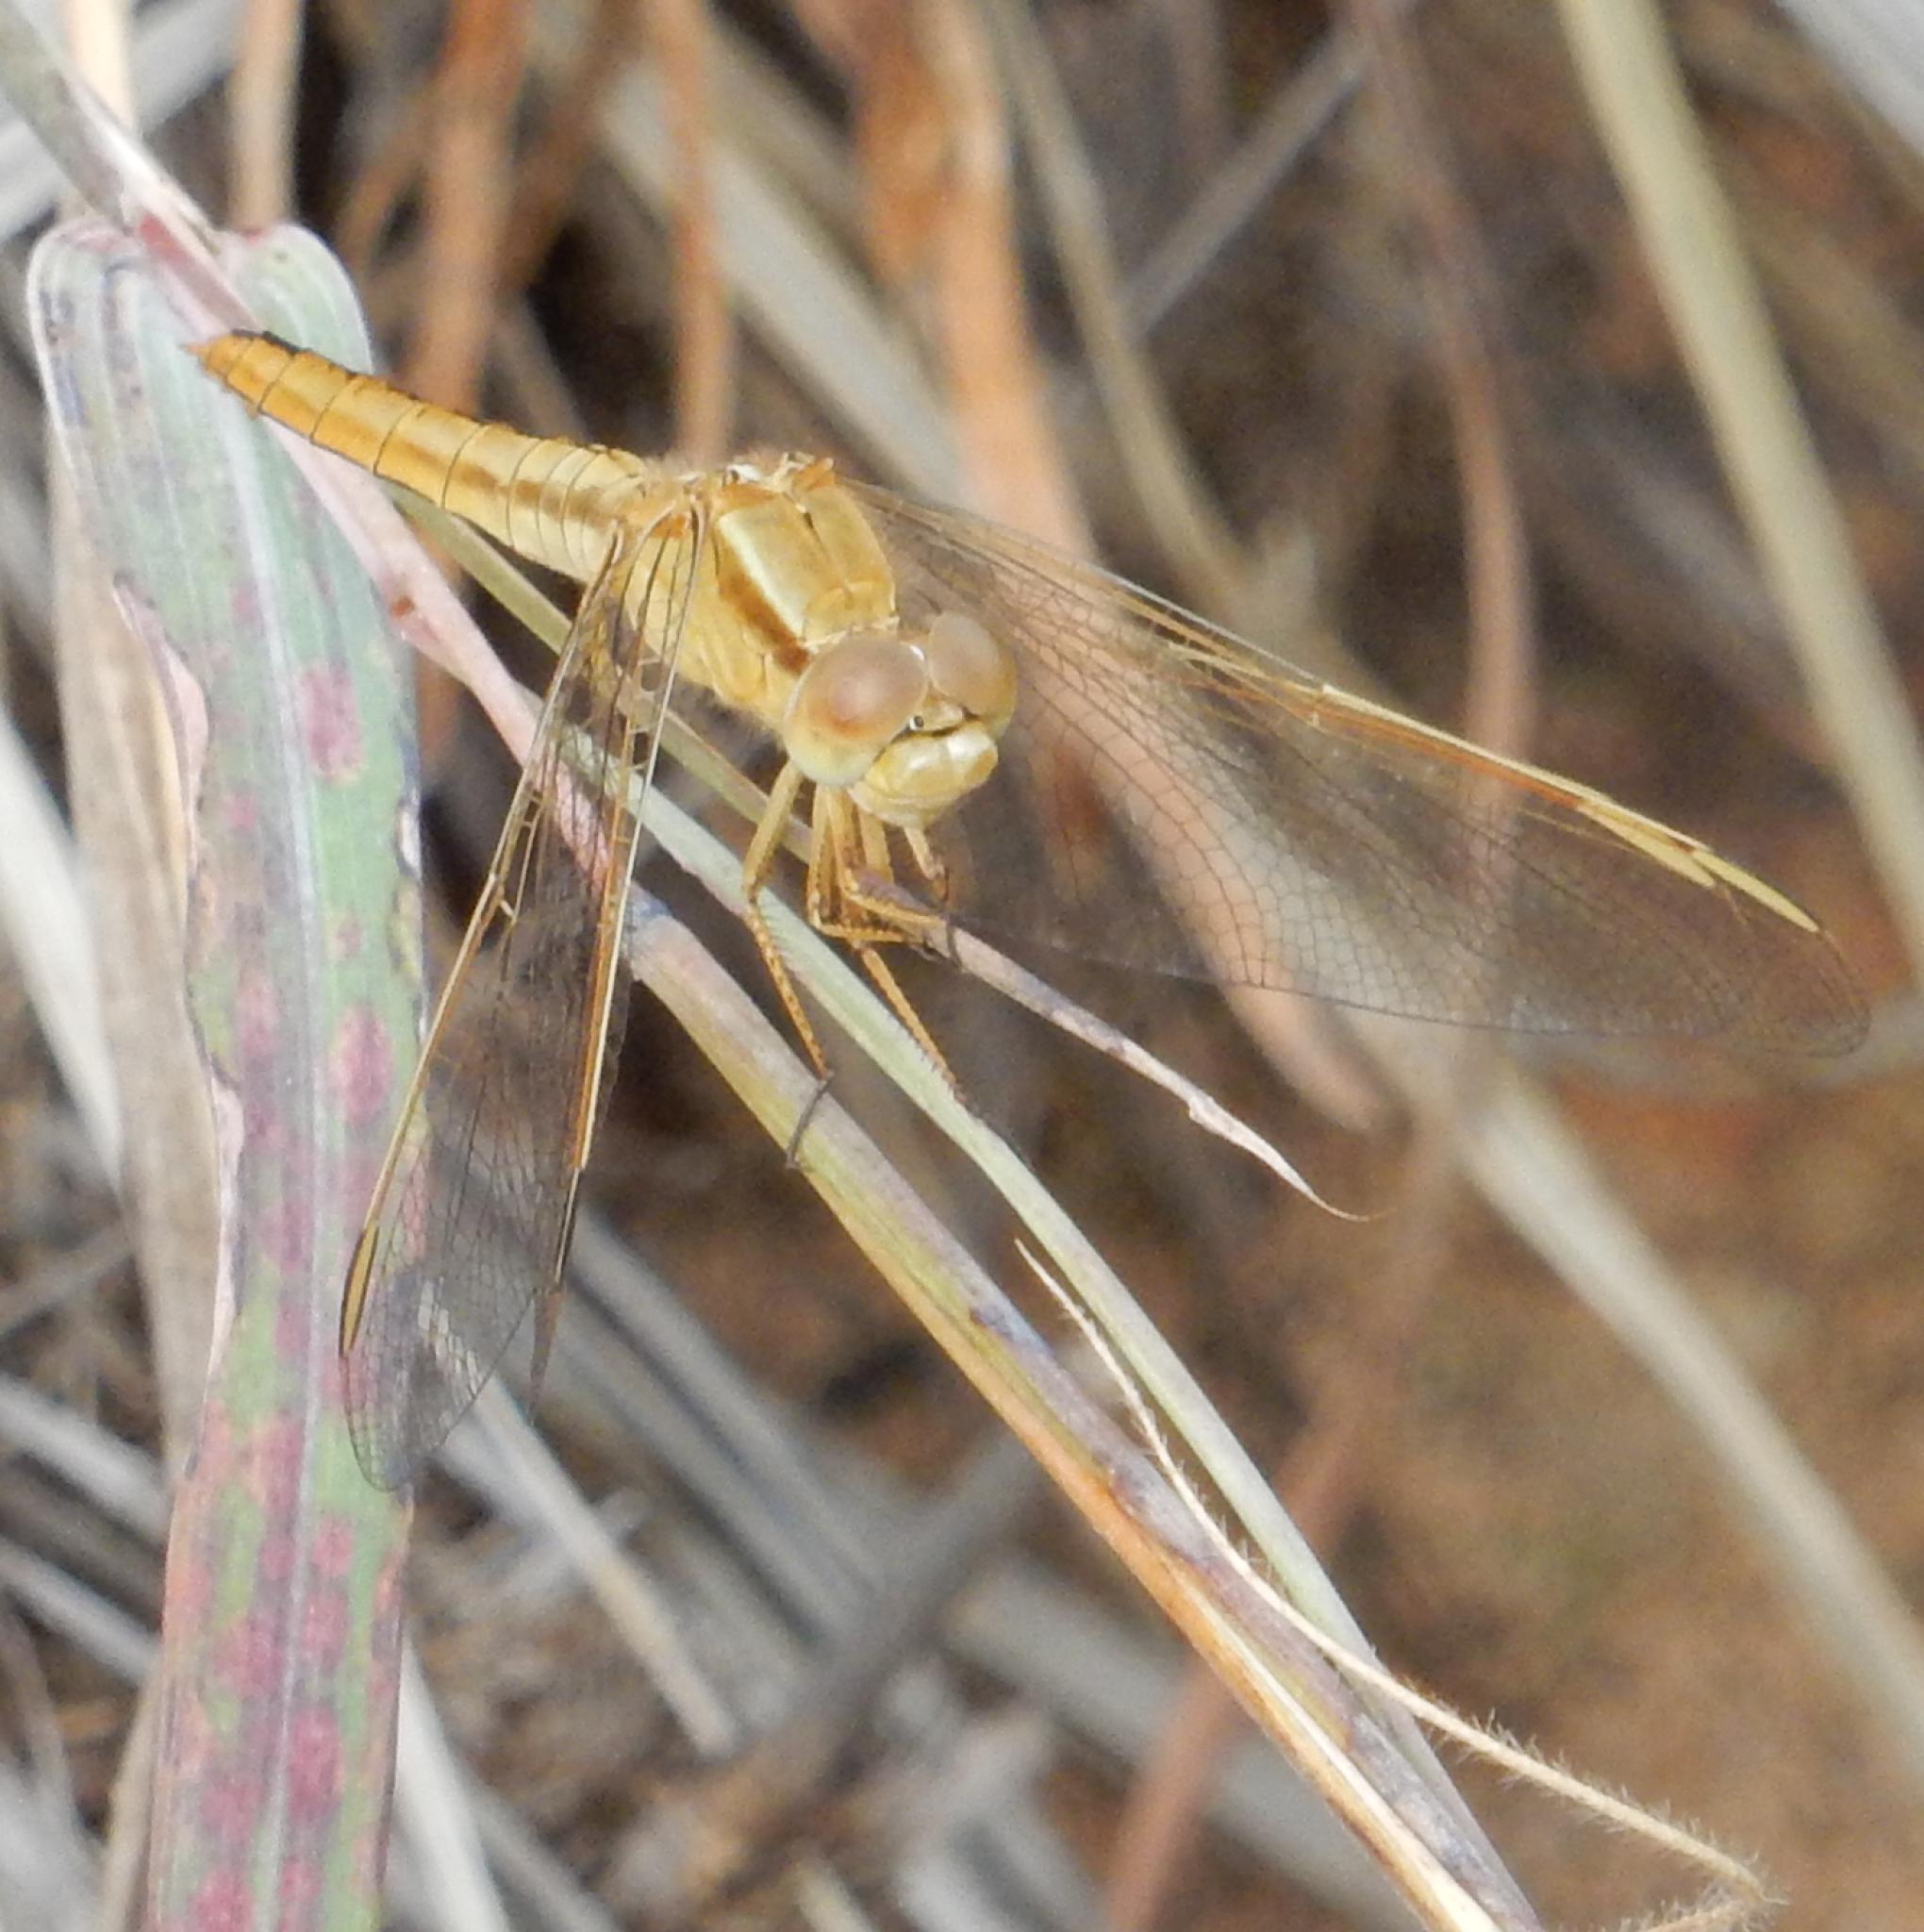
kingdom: Animalia
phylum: Arthropoda
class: Insecta
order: Odonata
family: Libellulidae
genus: Crocothemis
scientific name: Crocothemis erythraea
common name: Scarlet dragonfly
